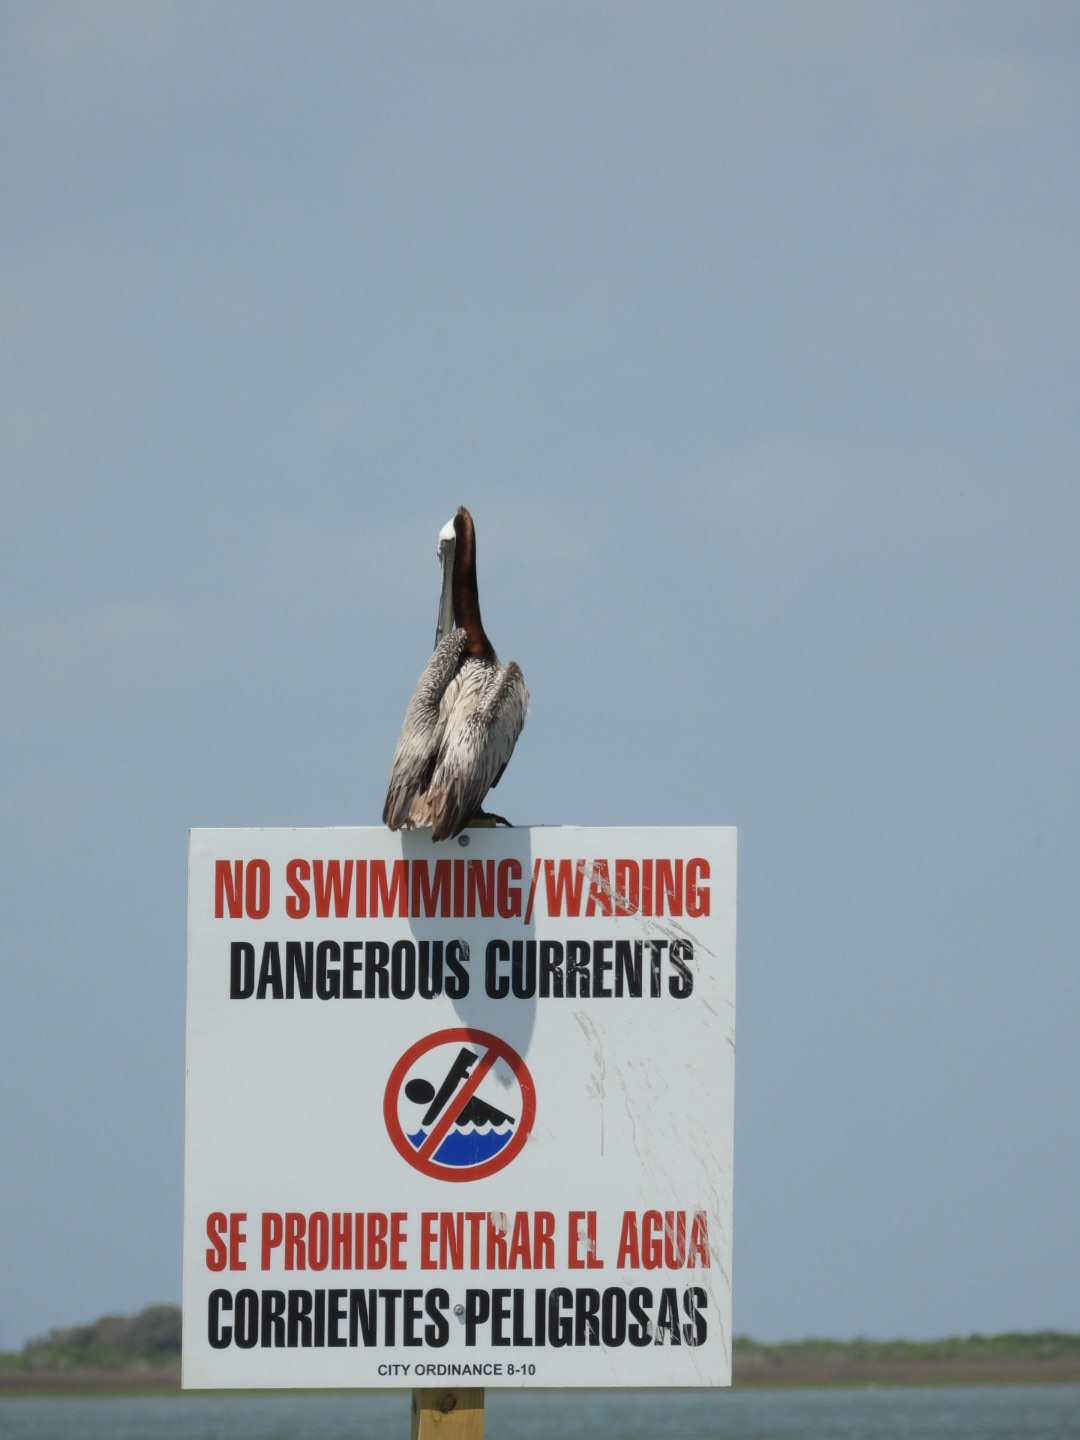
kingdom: Animalia
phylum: Chordata
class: Aves
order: Pelecaniformes
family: Pelecanidae
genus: Pelecanus
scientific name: Pelecanus occidentalis
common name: Brown pelican
